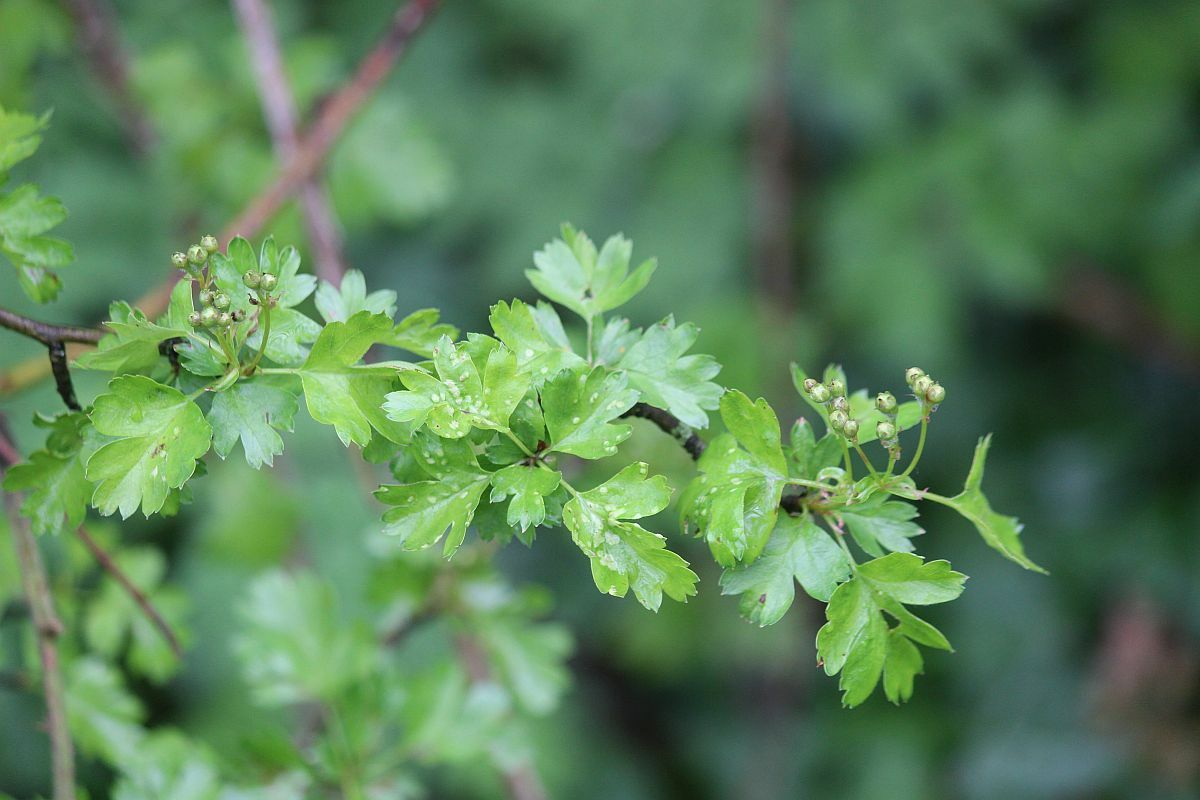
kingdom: Plantae
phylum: Tracheophyta
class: Magnoliopsida
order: Rosales
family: Rosaceae
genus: Crataegus
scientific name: Crataegus monogyna
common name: Hawthorn
